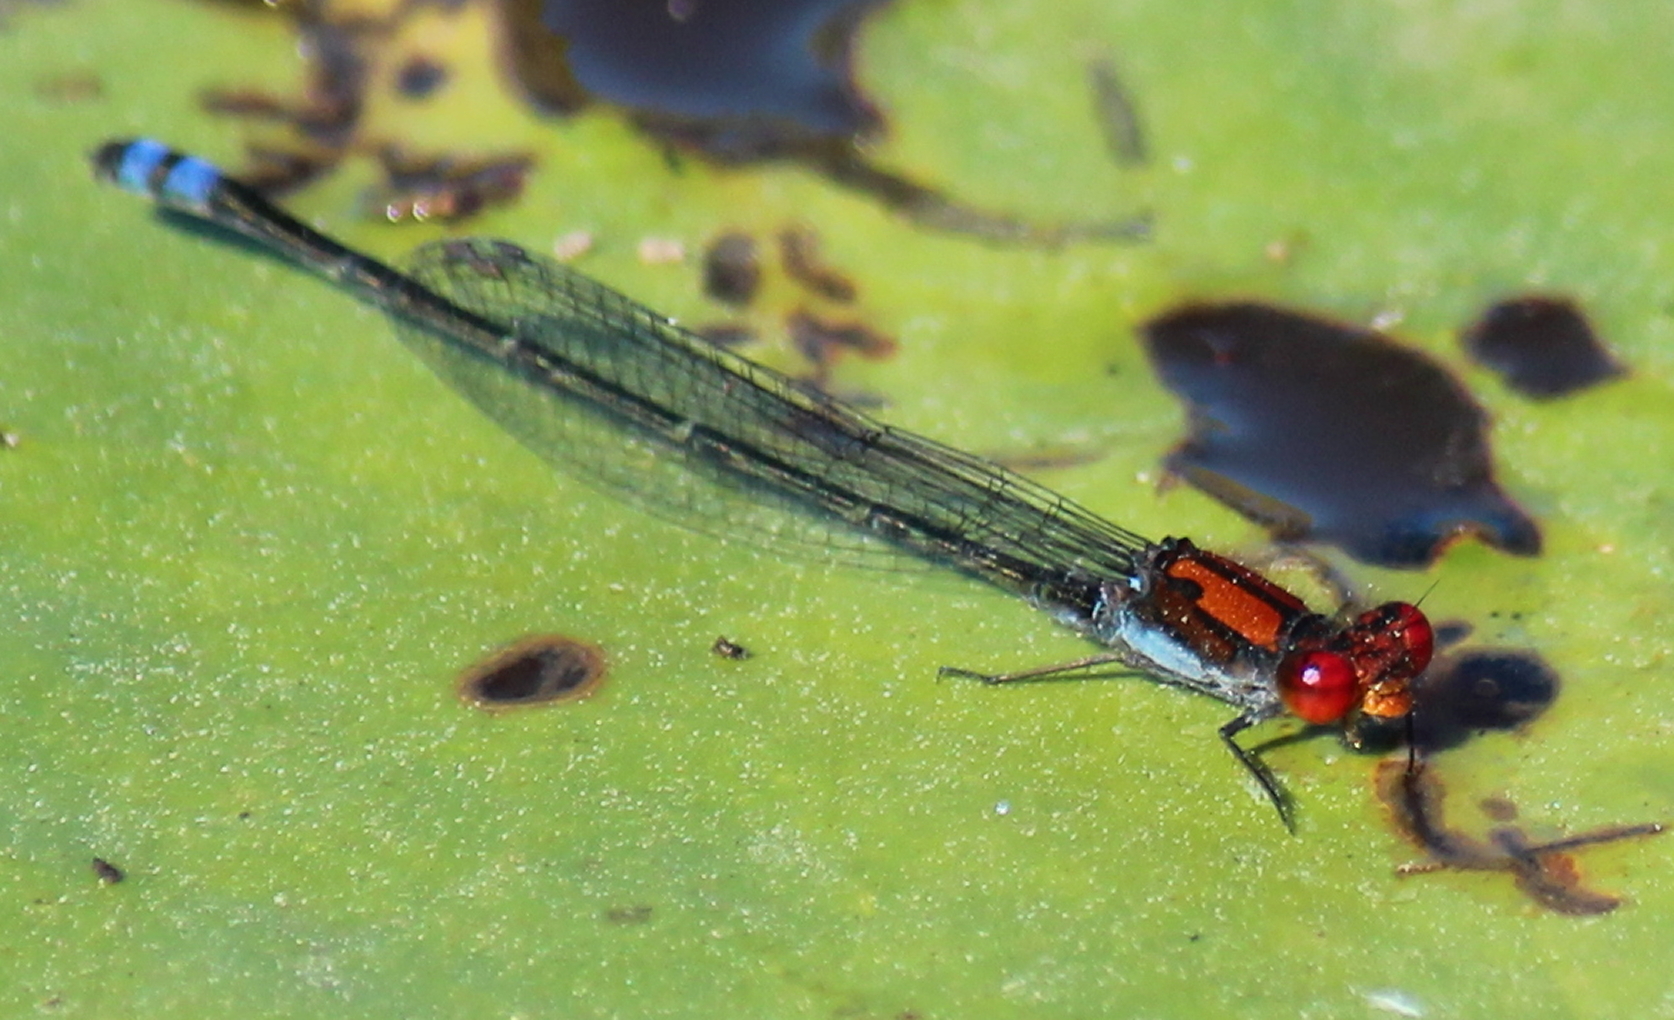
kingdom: Animalia
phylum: Arthropoda
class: Insecta
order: Odonata
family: Coenagrionidae
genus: Pseudagrion
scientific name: Pseudagrion massaicum
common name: Masai sprite
